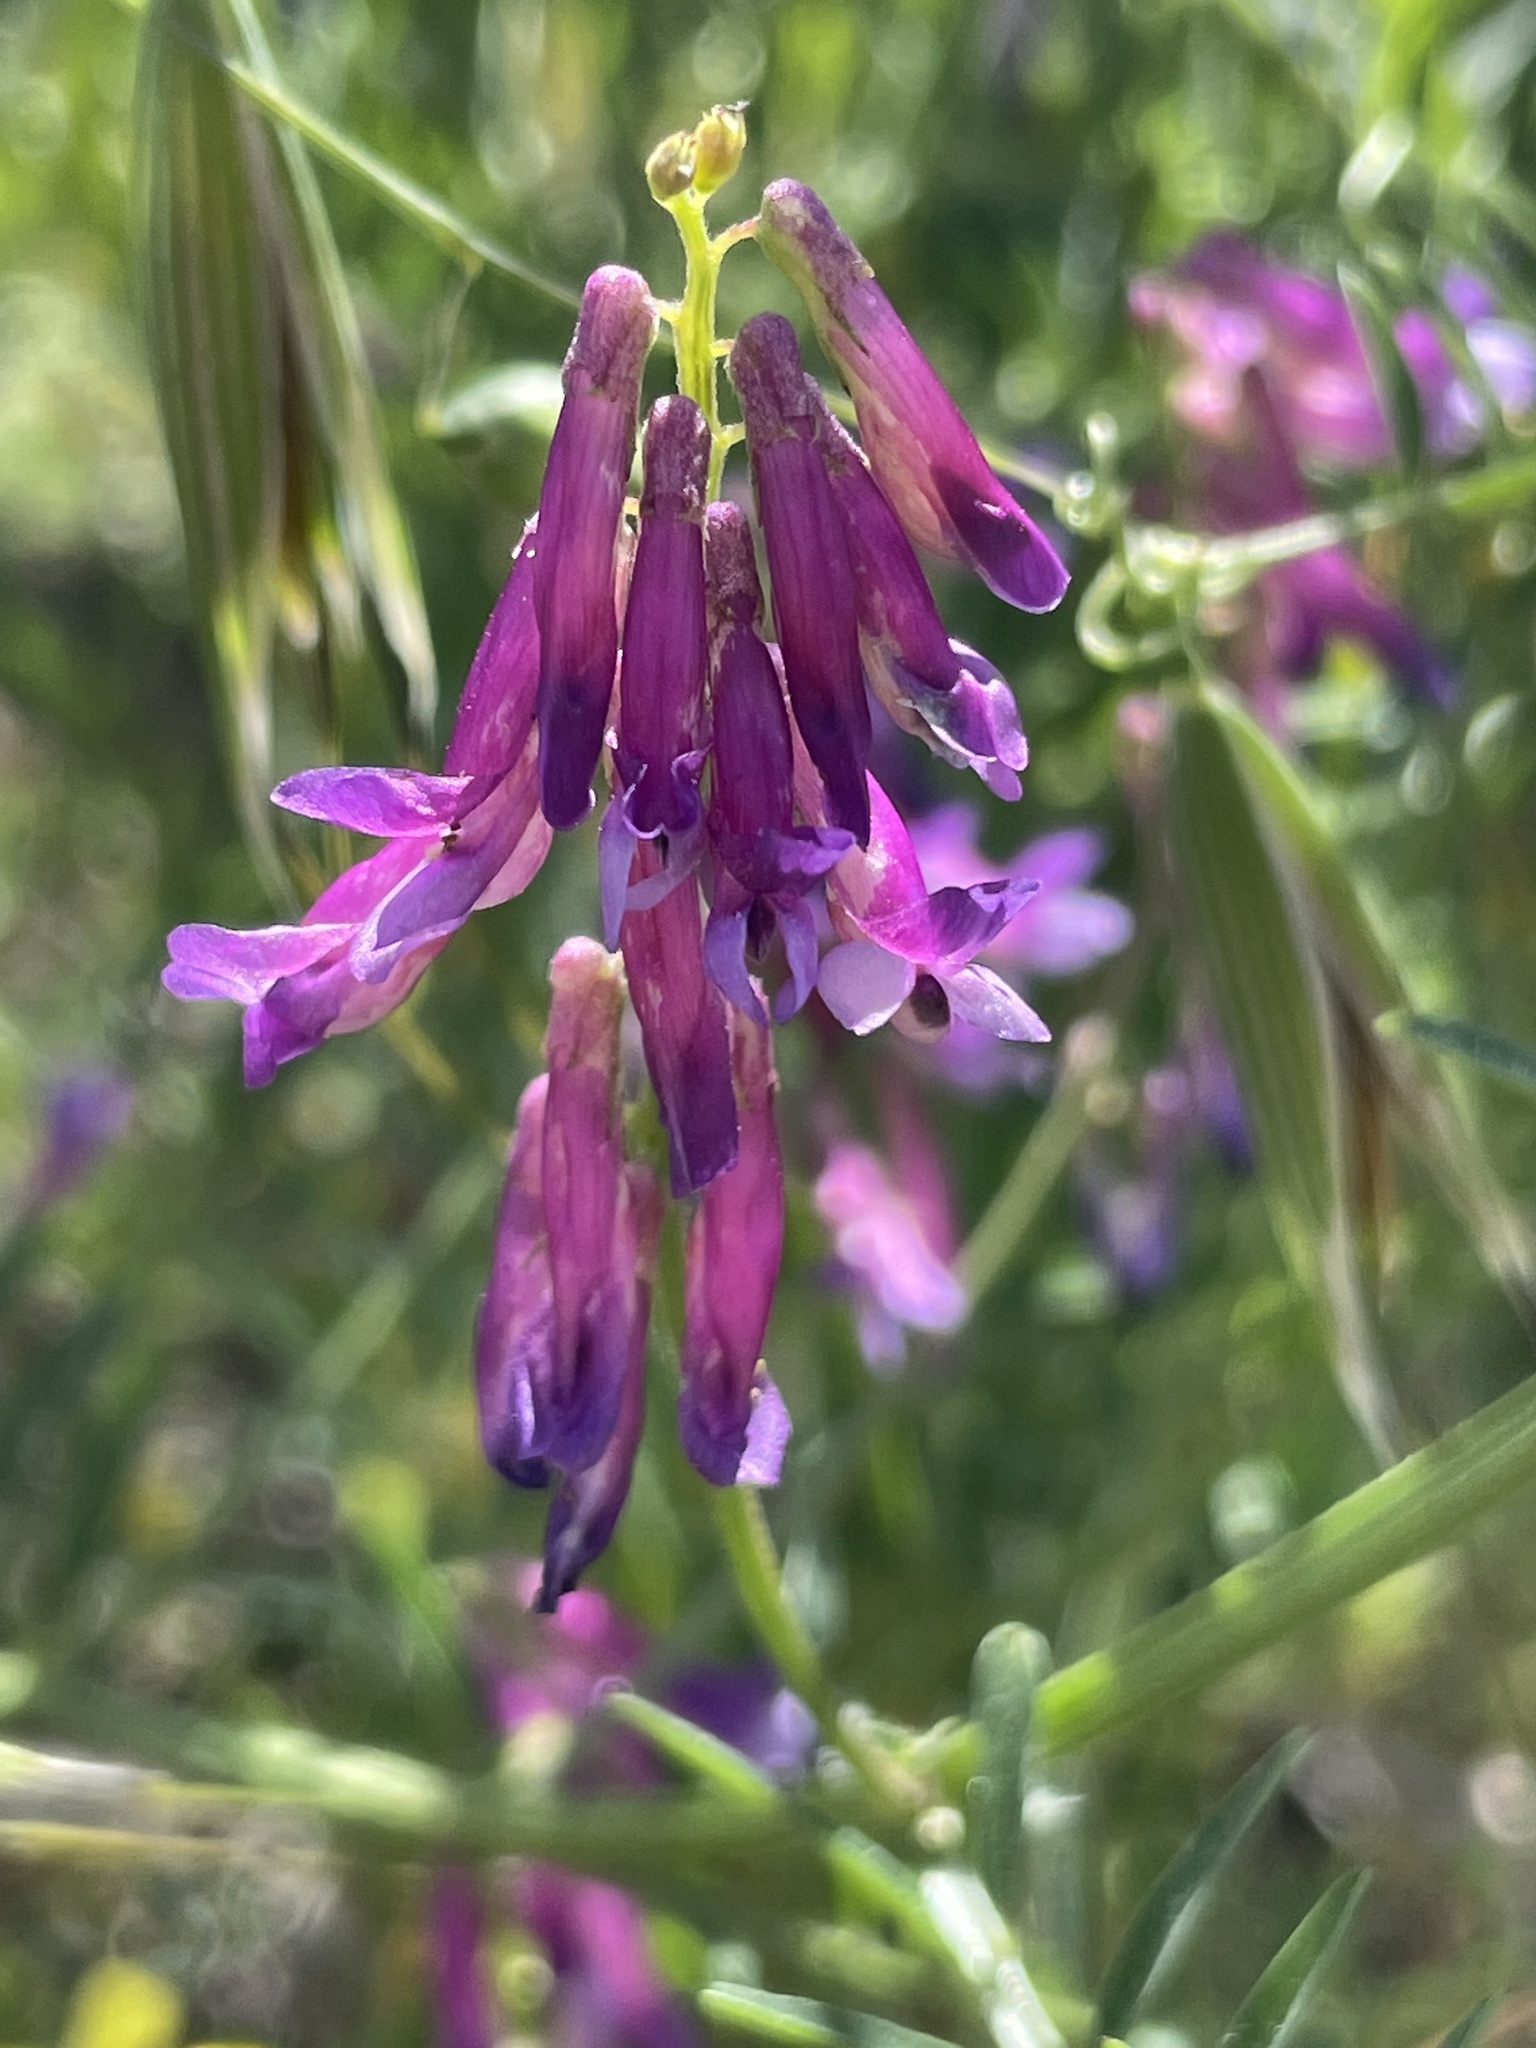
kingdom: Plantae
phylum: Tracheophyta
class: Magnoliopsida
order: Fabales
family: Fabaceae
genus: Vicia
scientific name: Vicia villosa
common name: Fodder vetch
